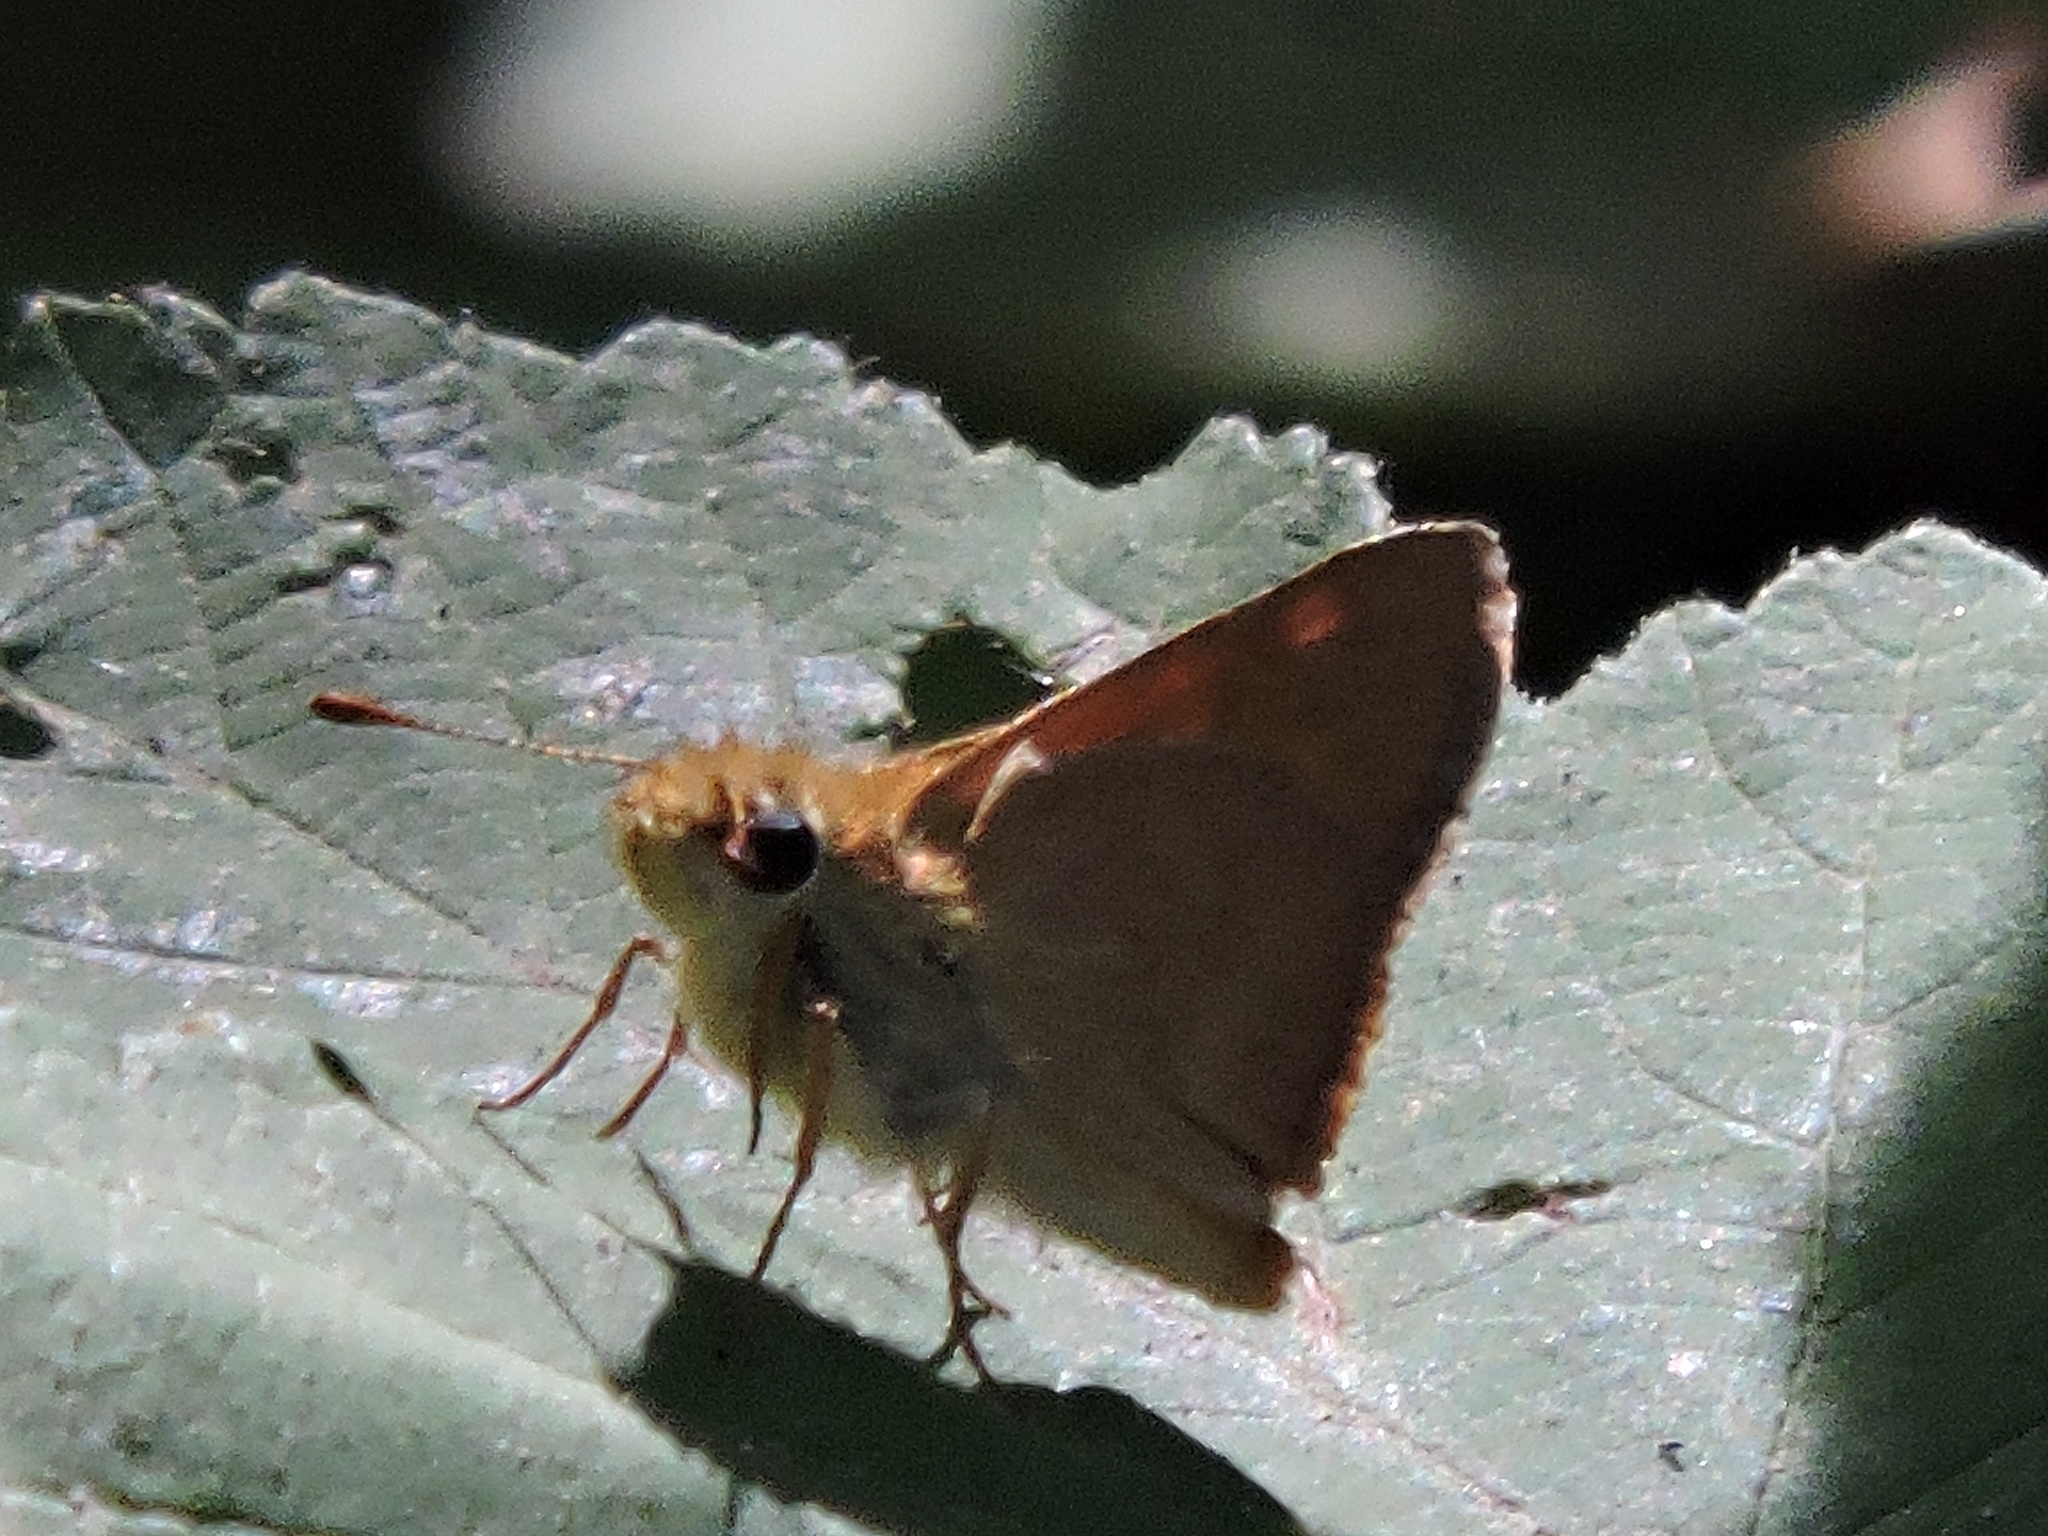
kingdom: Animalia
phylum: Arthropoda
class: Insecta
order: Lepidoptera
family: Hesperiidae
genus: Ochlodes
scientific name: Ochlodes sylvanoides
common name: Woodland skipper
